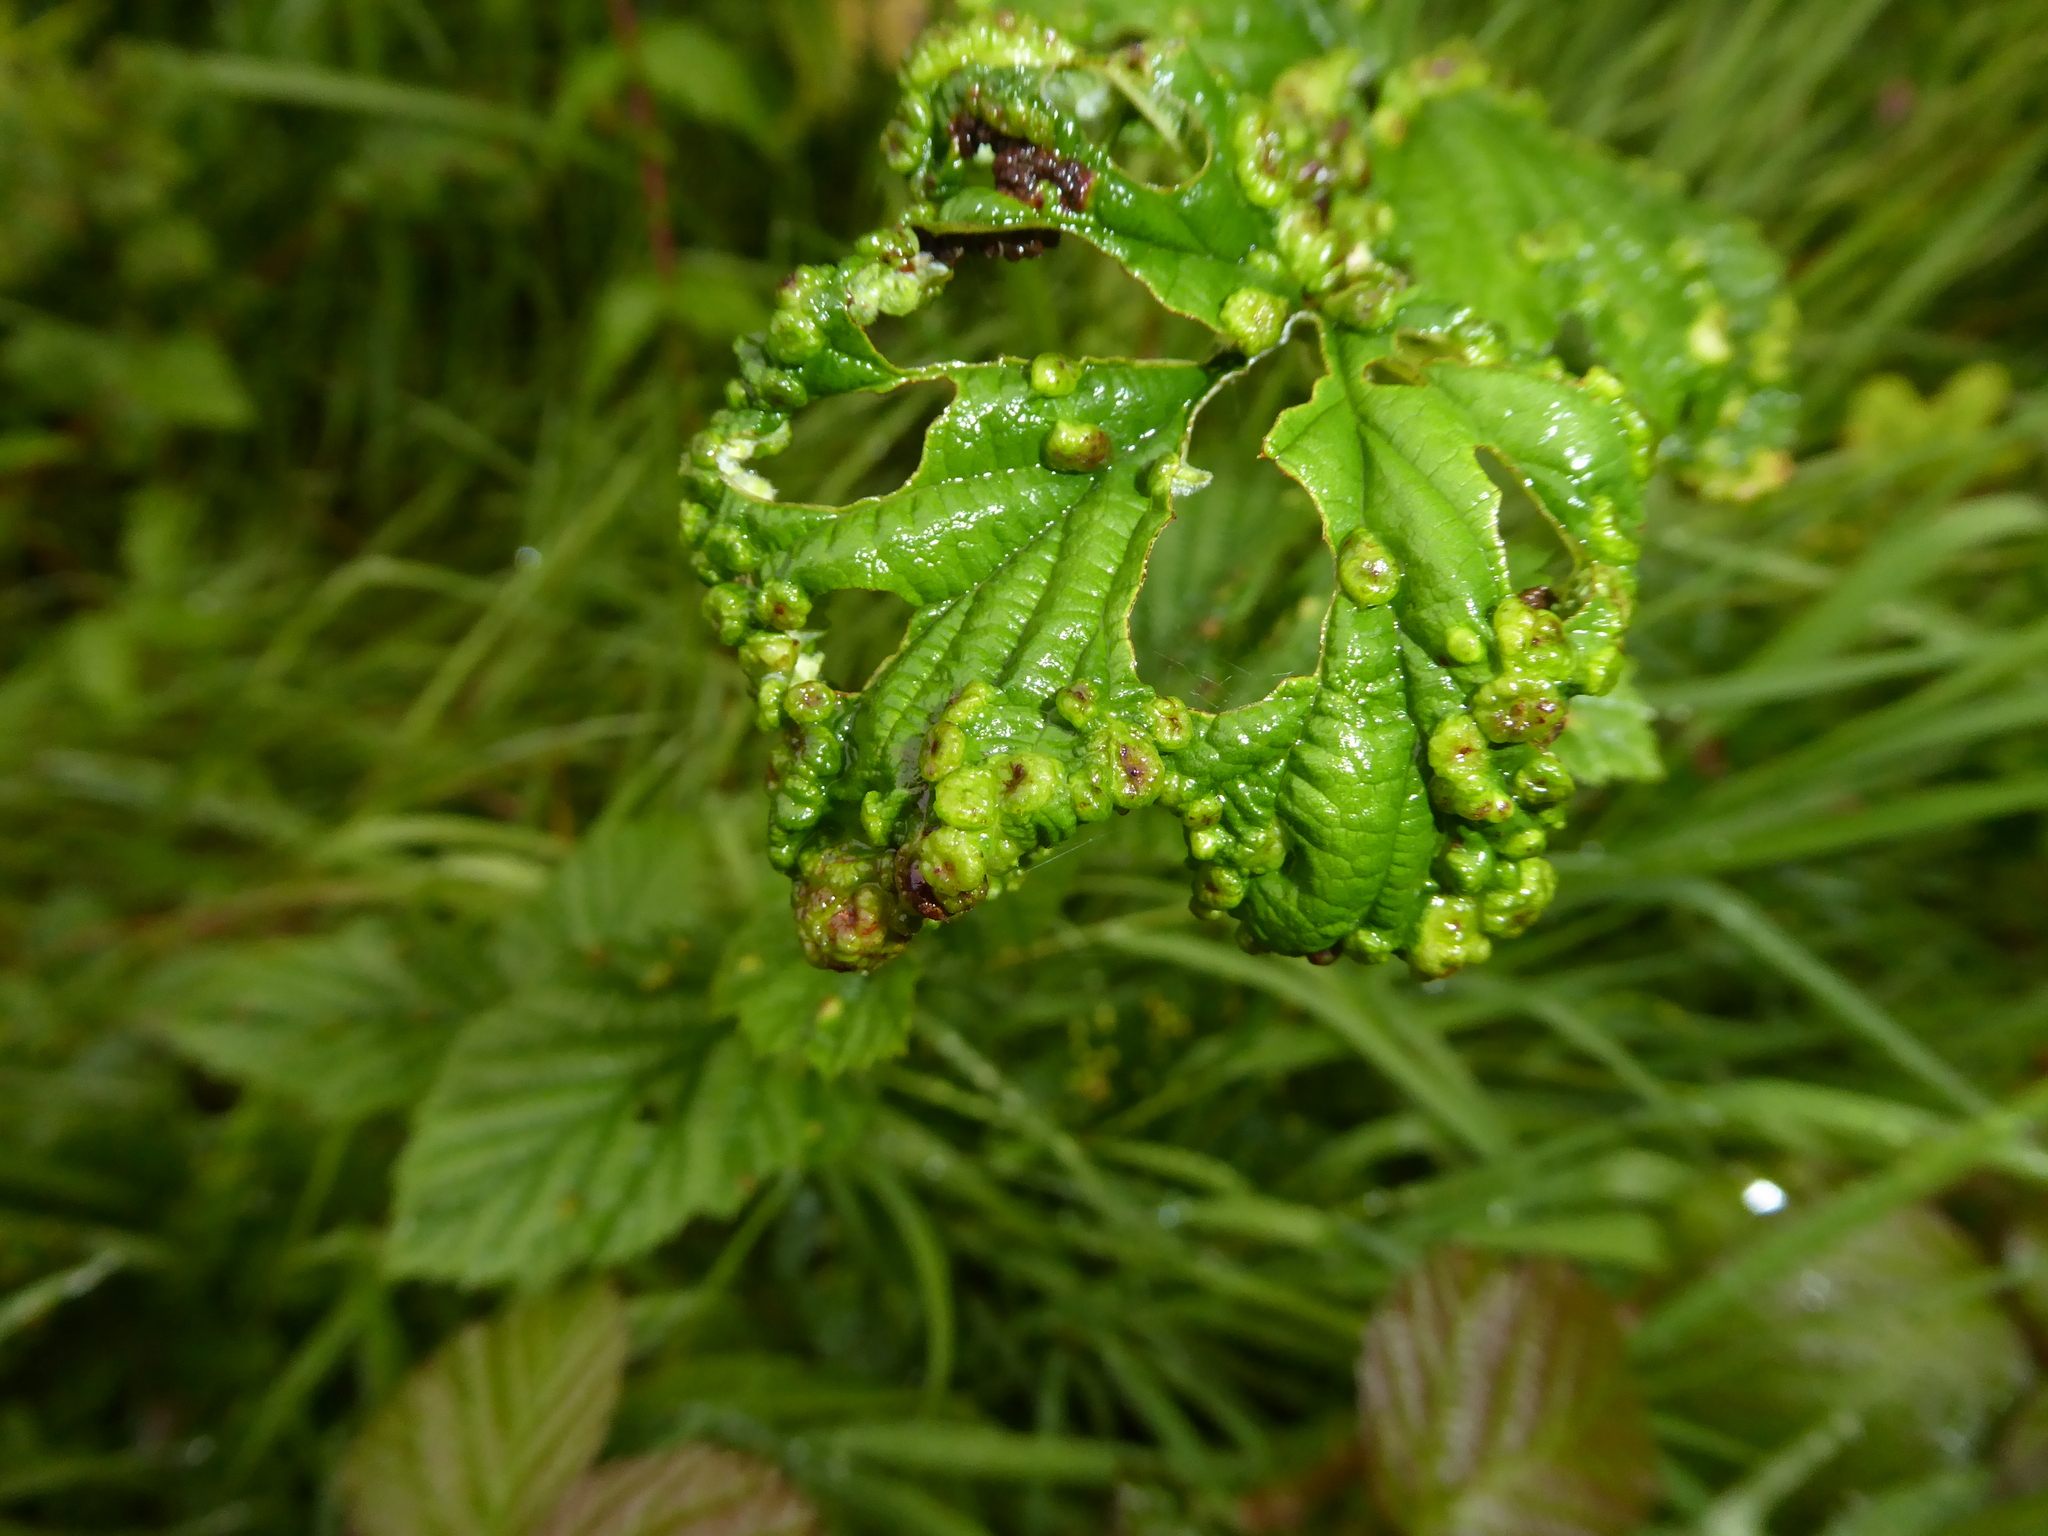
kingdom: Animalia
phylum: Arthropoda
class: Insecta
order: Diptera
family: Cecidomyiidae
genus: Dasineura
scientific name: Dasineura ulmaria
